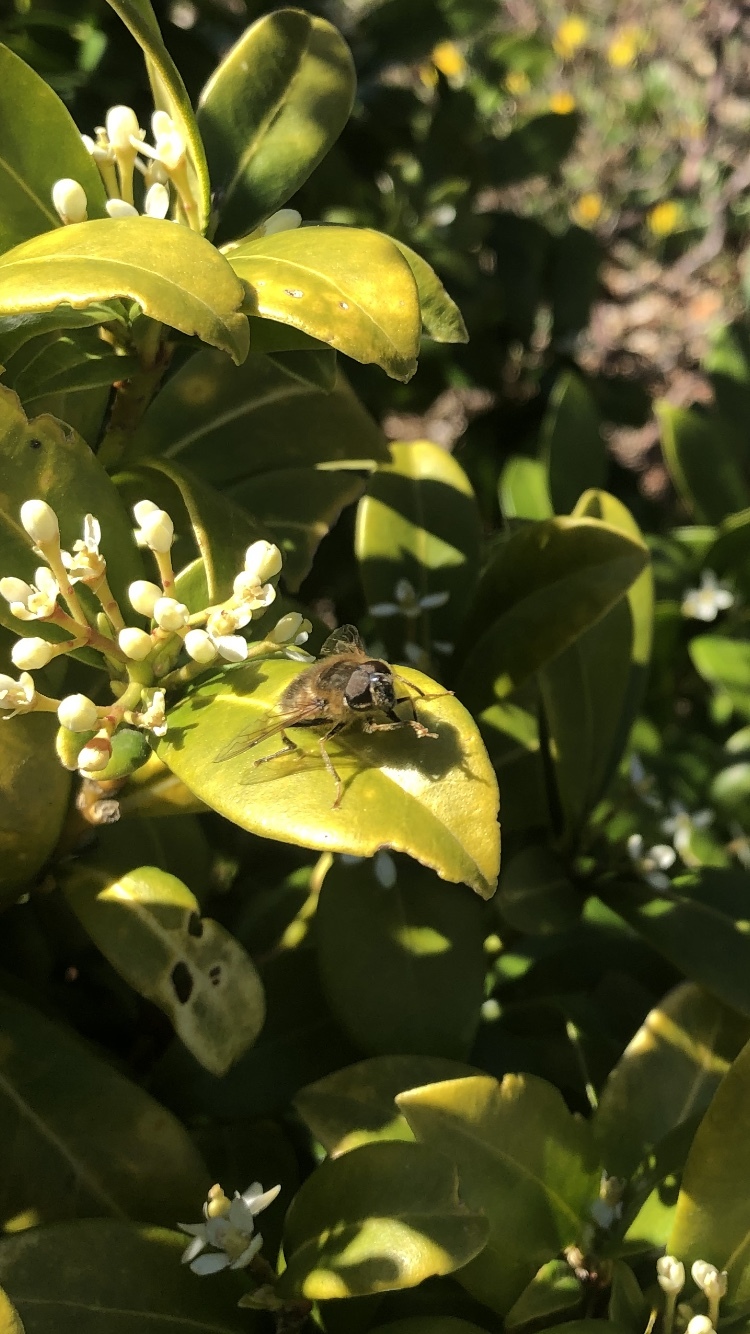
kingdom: Animalia
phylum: Arthropoda
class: Insecta
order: Diptera
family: Syrphidae
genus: Eristalis
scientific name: Eristalis pertinax
